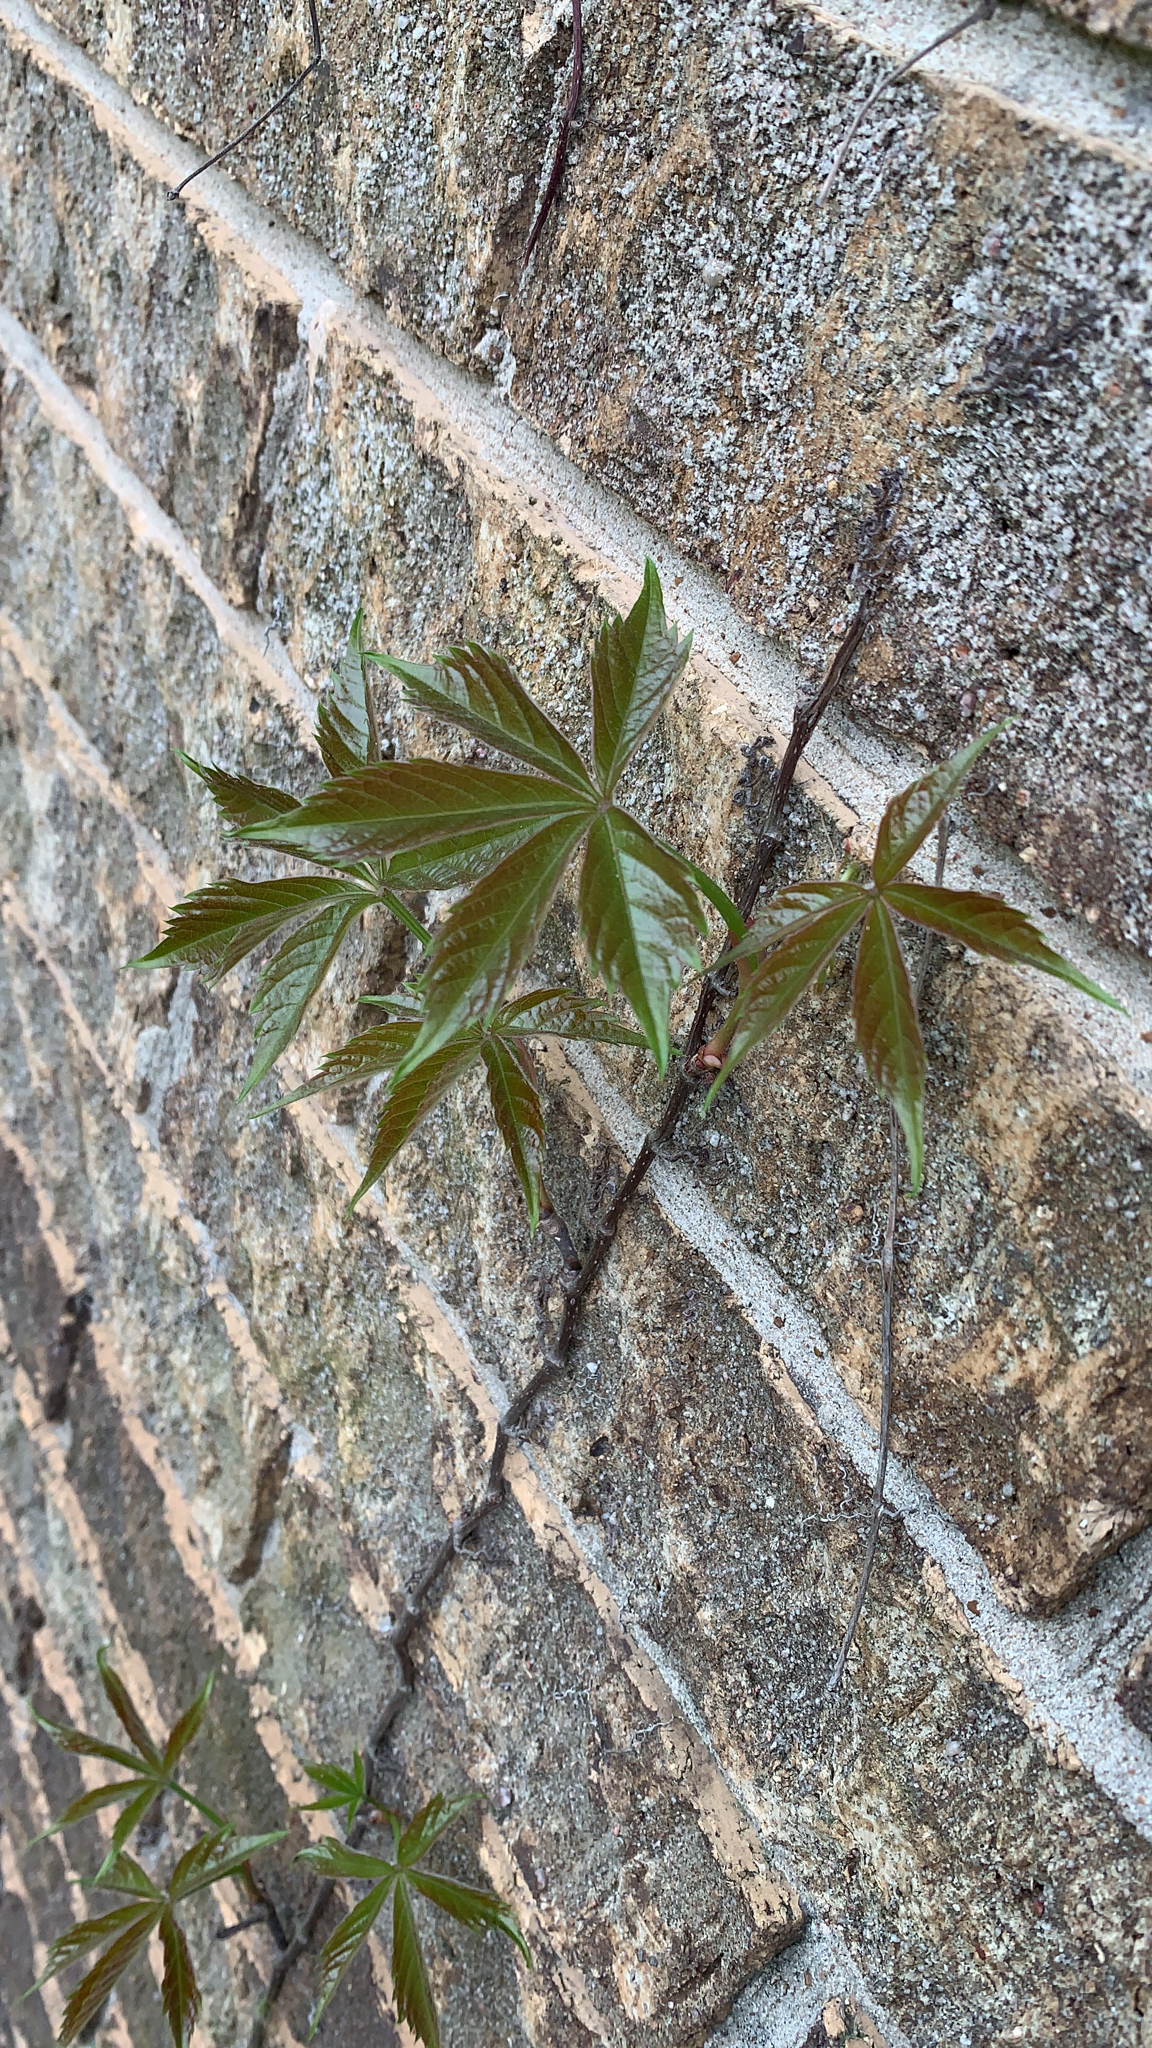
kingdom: Plantae
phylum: Tracheophyta
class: Magnoliopsida
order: Vitales
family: Vitaceae
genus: Parthenocissus
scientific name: Parthenocissus quinquefolia
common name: Virginia-creeper
